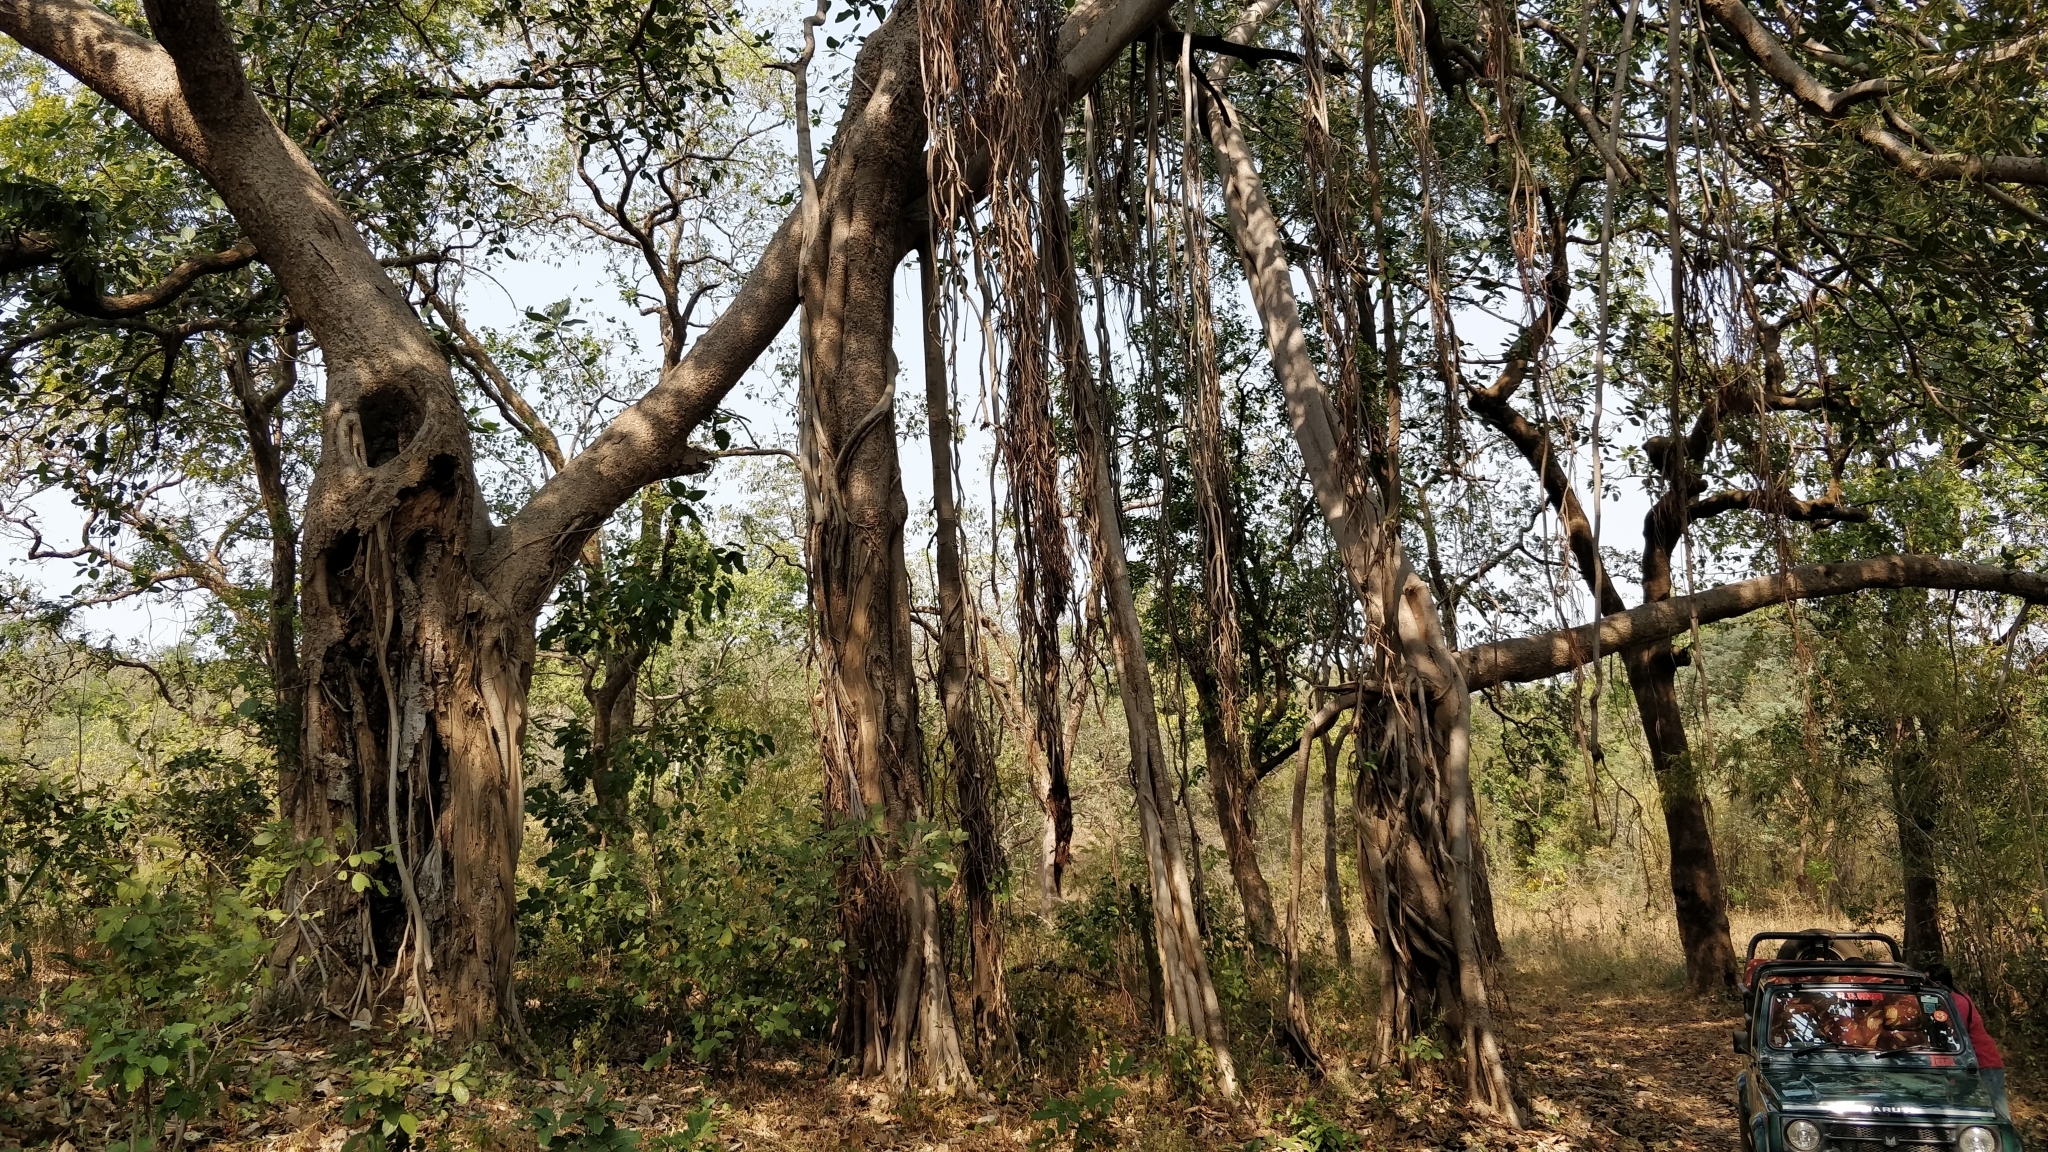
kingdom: Plantae
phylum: Tracheophyta
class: Magnoliopsida
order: Rosales
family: Moraceae
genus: Ficus
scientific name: Ficus benghalensis
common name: Indian banyan
